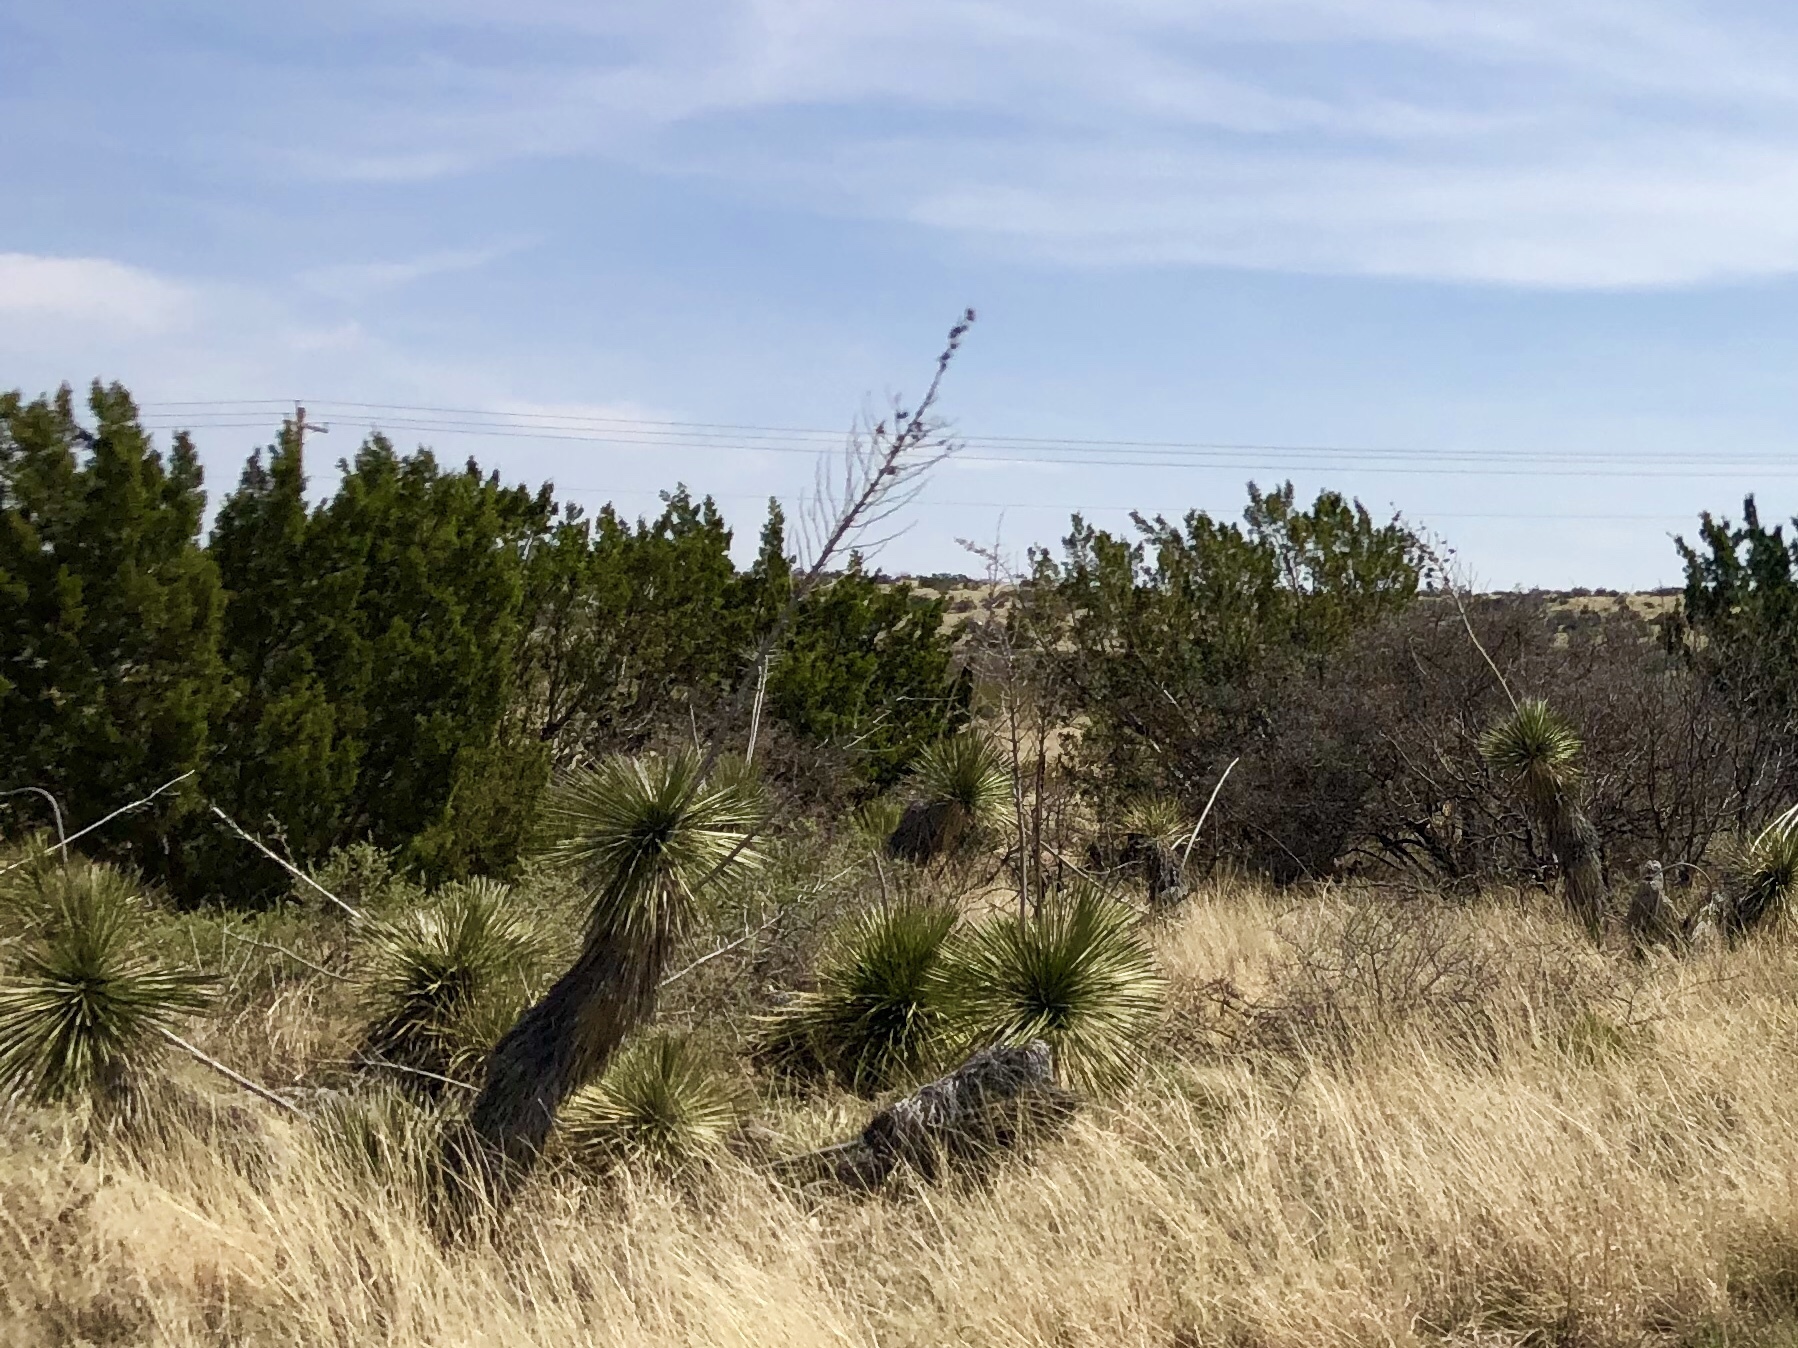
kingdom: Plantae
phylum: Tracheophyta
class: Liliopsida
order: Asparagales
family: Asparagaceae
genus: Yucca
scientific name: Yucca elata
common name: Palmella
